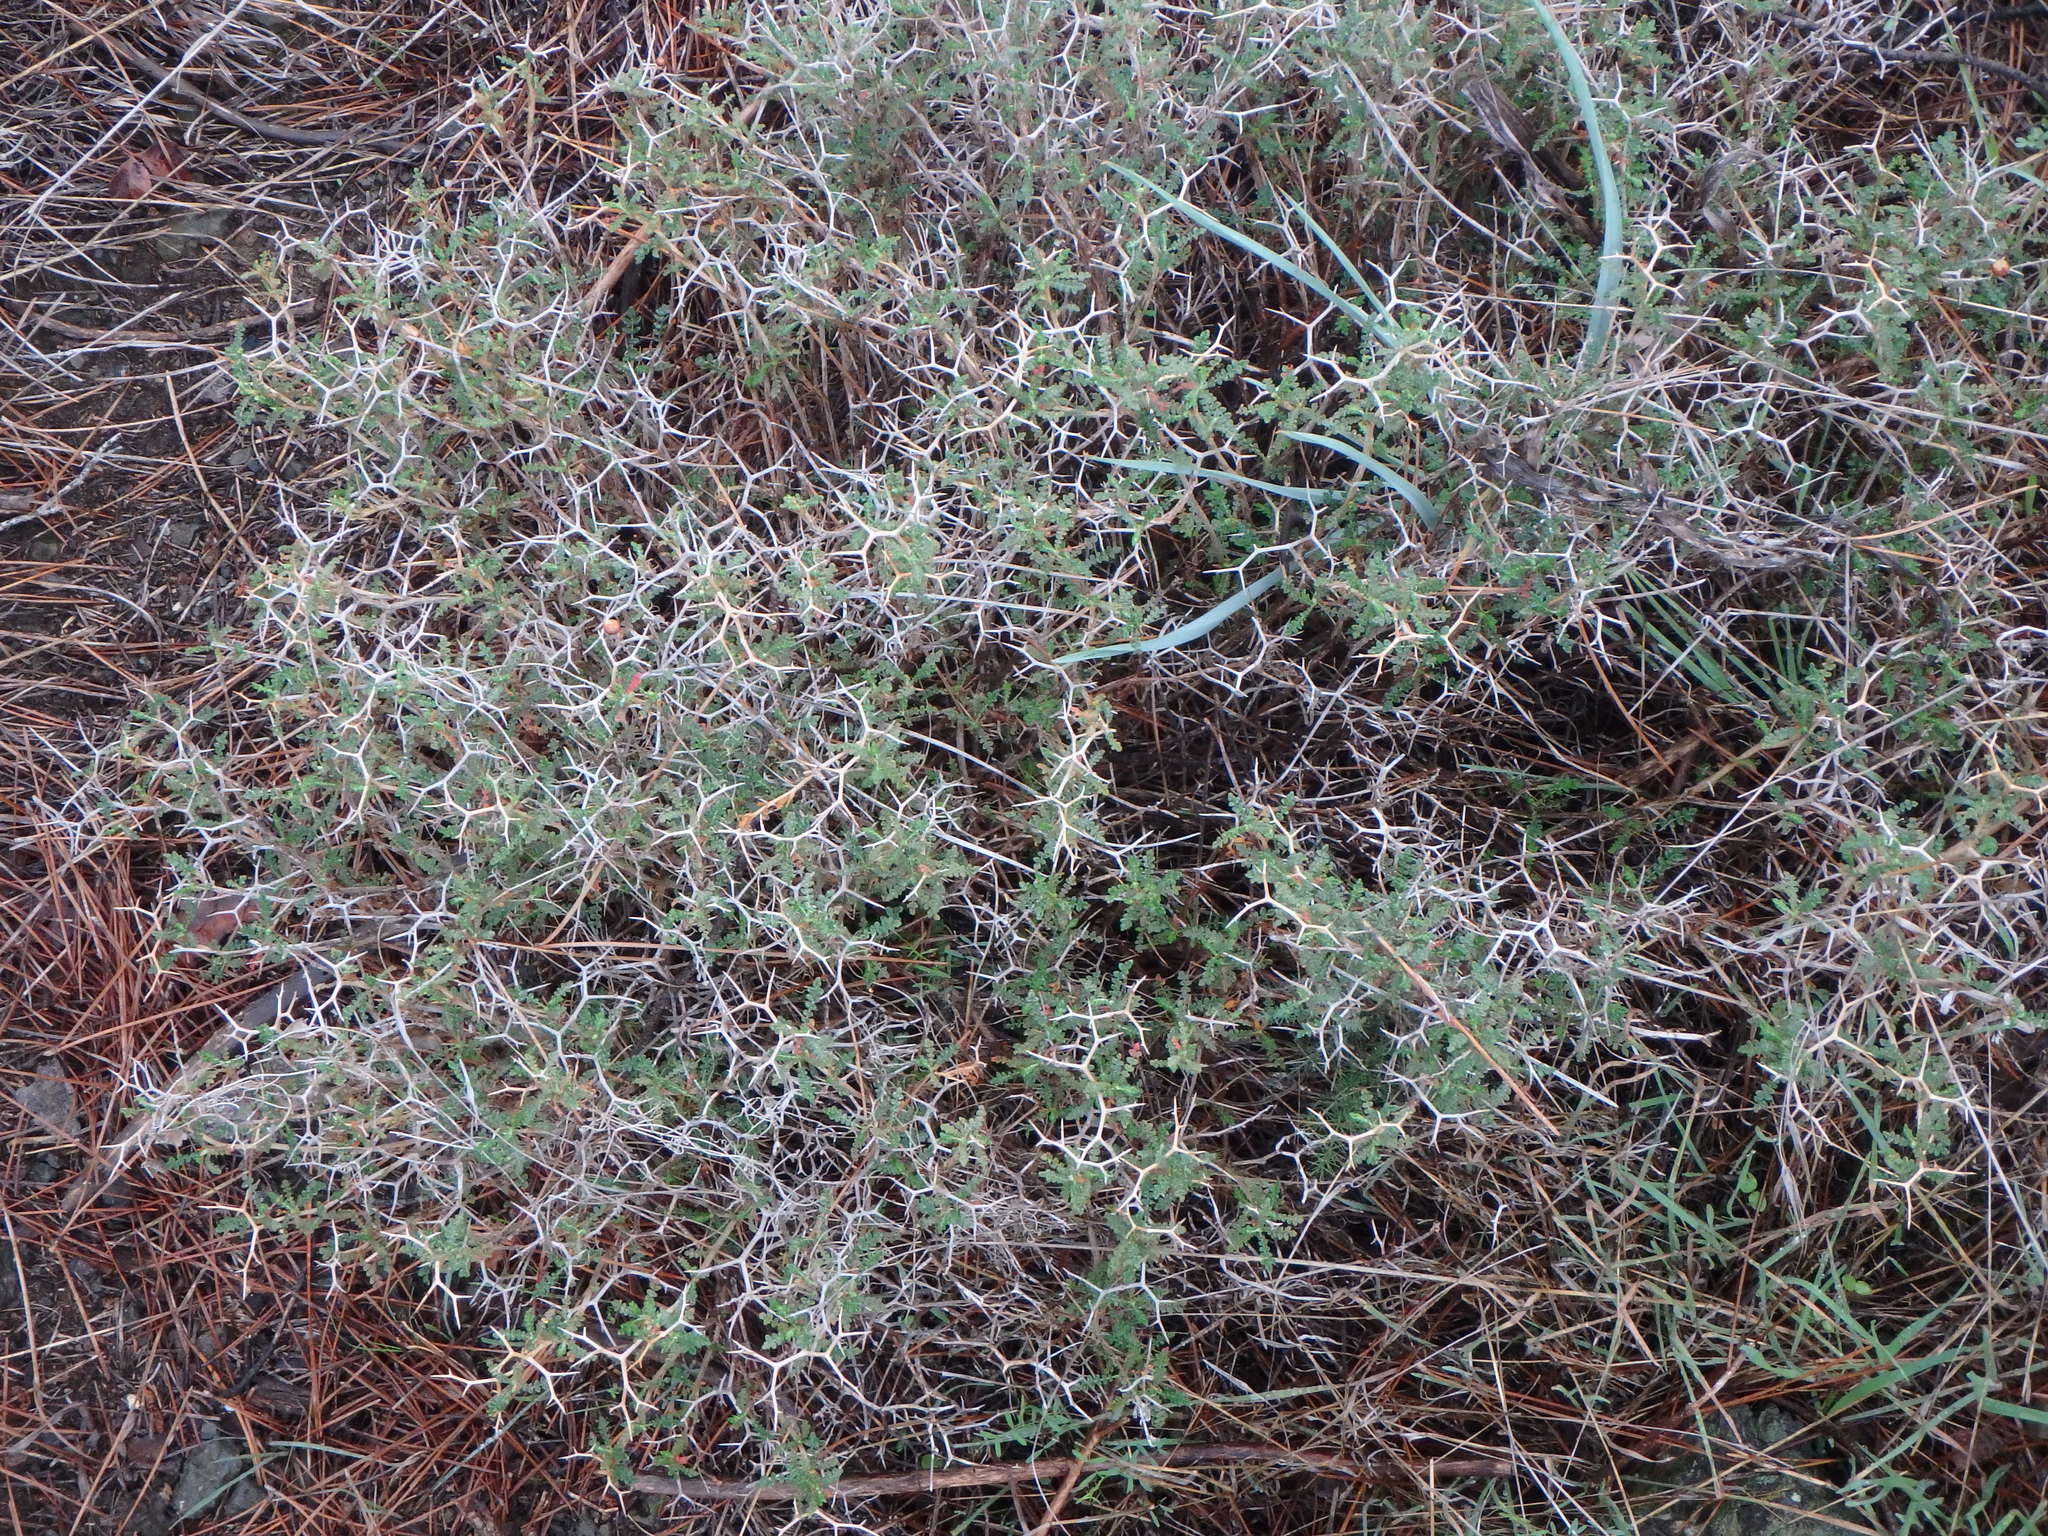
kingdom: Plantae
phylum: Tracheophyta
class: Magnoliopsida
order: Rosales
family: Rosaceae
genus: Sarcopoterium
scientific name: Sarcopoterium spinosum
